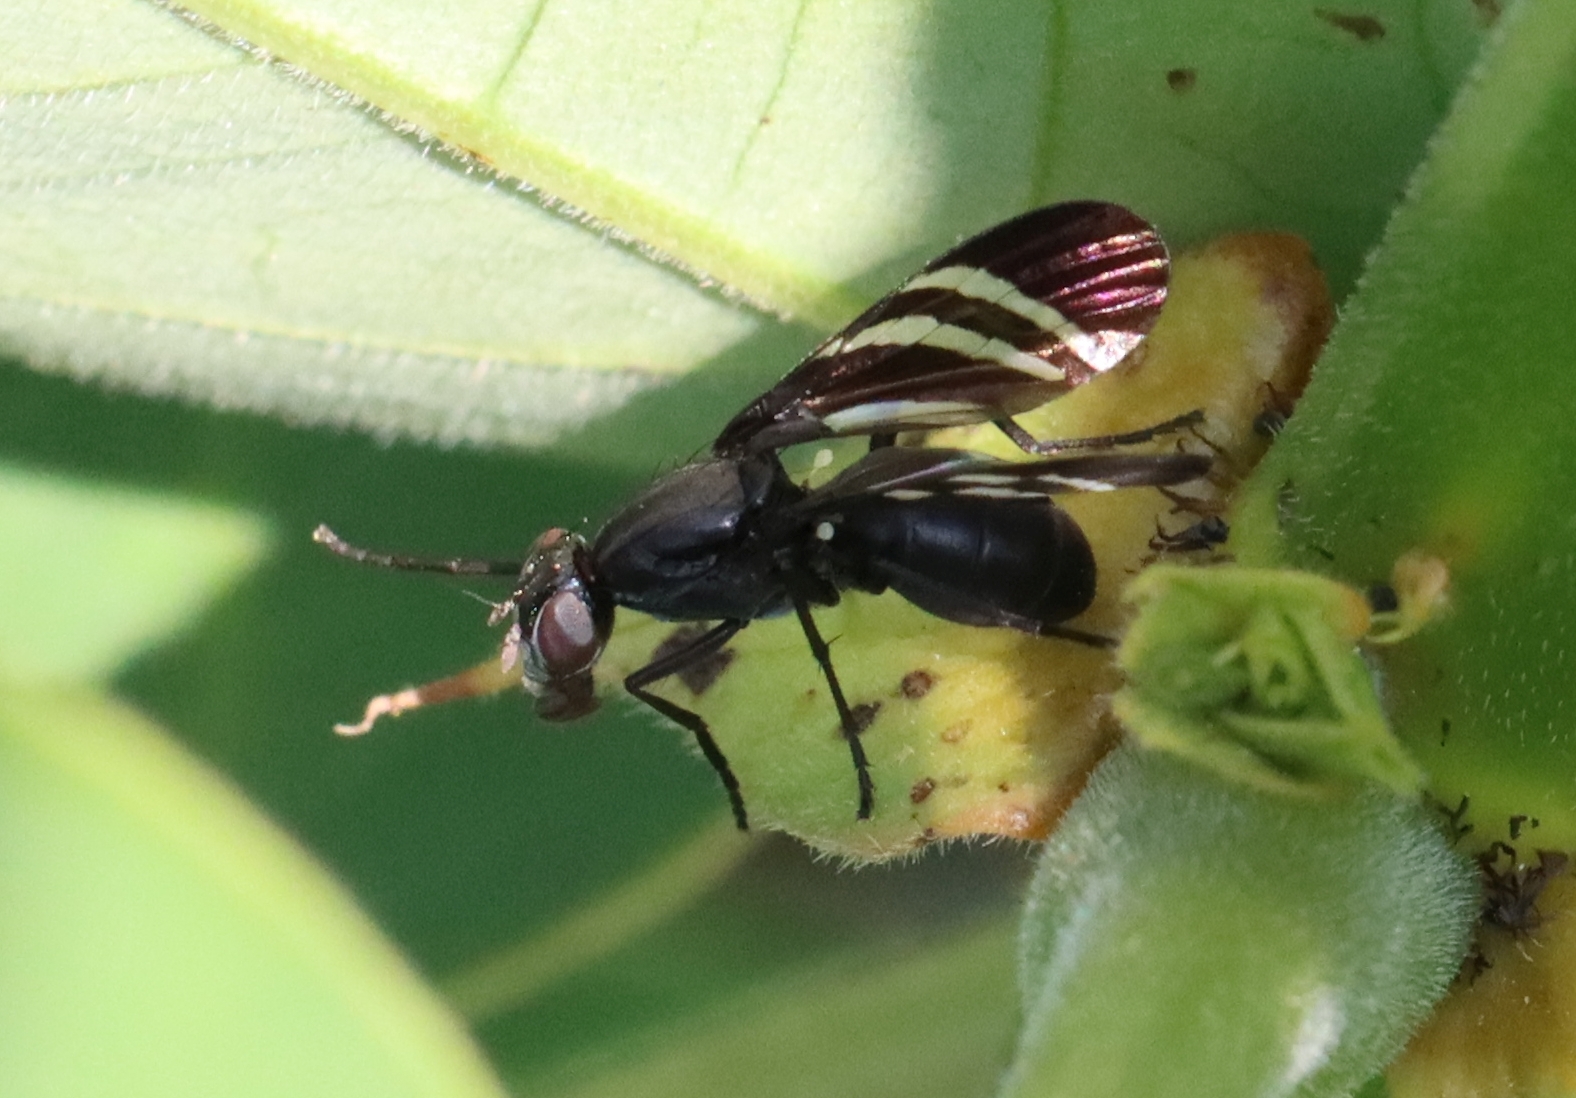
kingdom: Animalia
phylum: Arthropoda
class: Insecta
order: Diptera
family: Ulidiidae
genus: Tritoxa
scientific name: Tritoxa flexa
